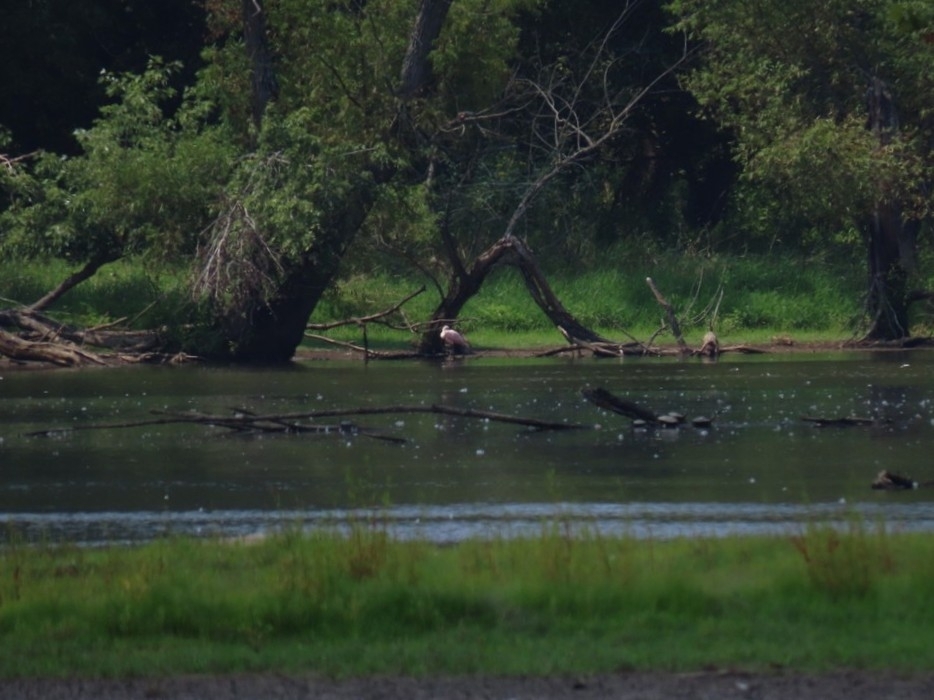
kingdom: Animalia
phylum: Chordata
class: Aves
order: Pelecaniformes
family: Threskiornithidae
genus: Platalea
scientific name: Platalea ajaja
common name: Roseate spoonbill
